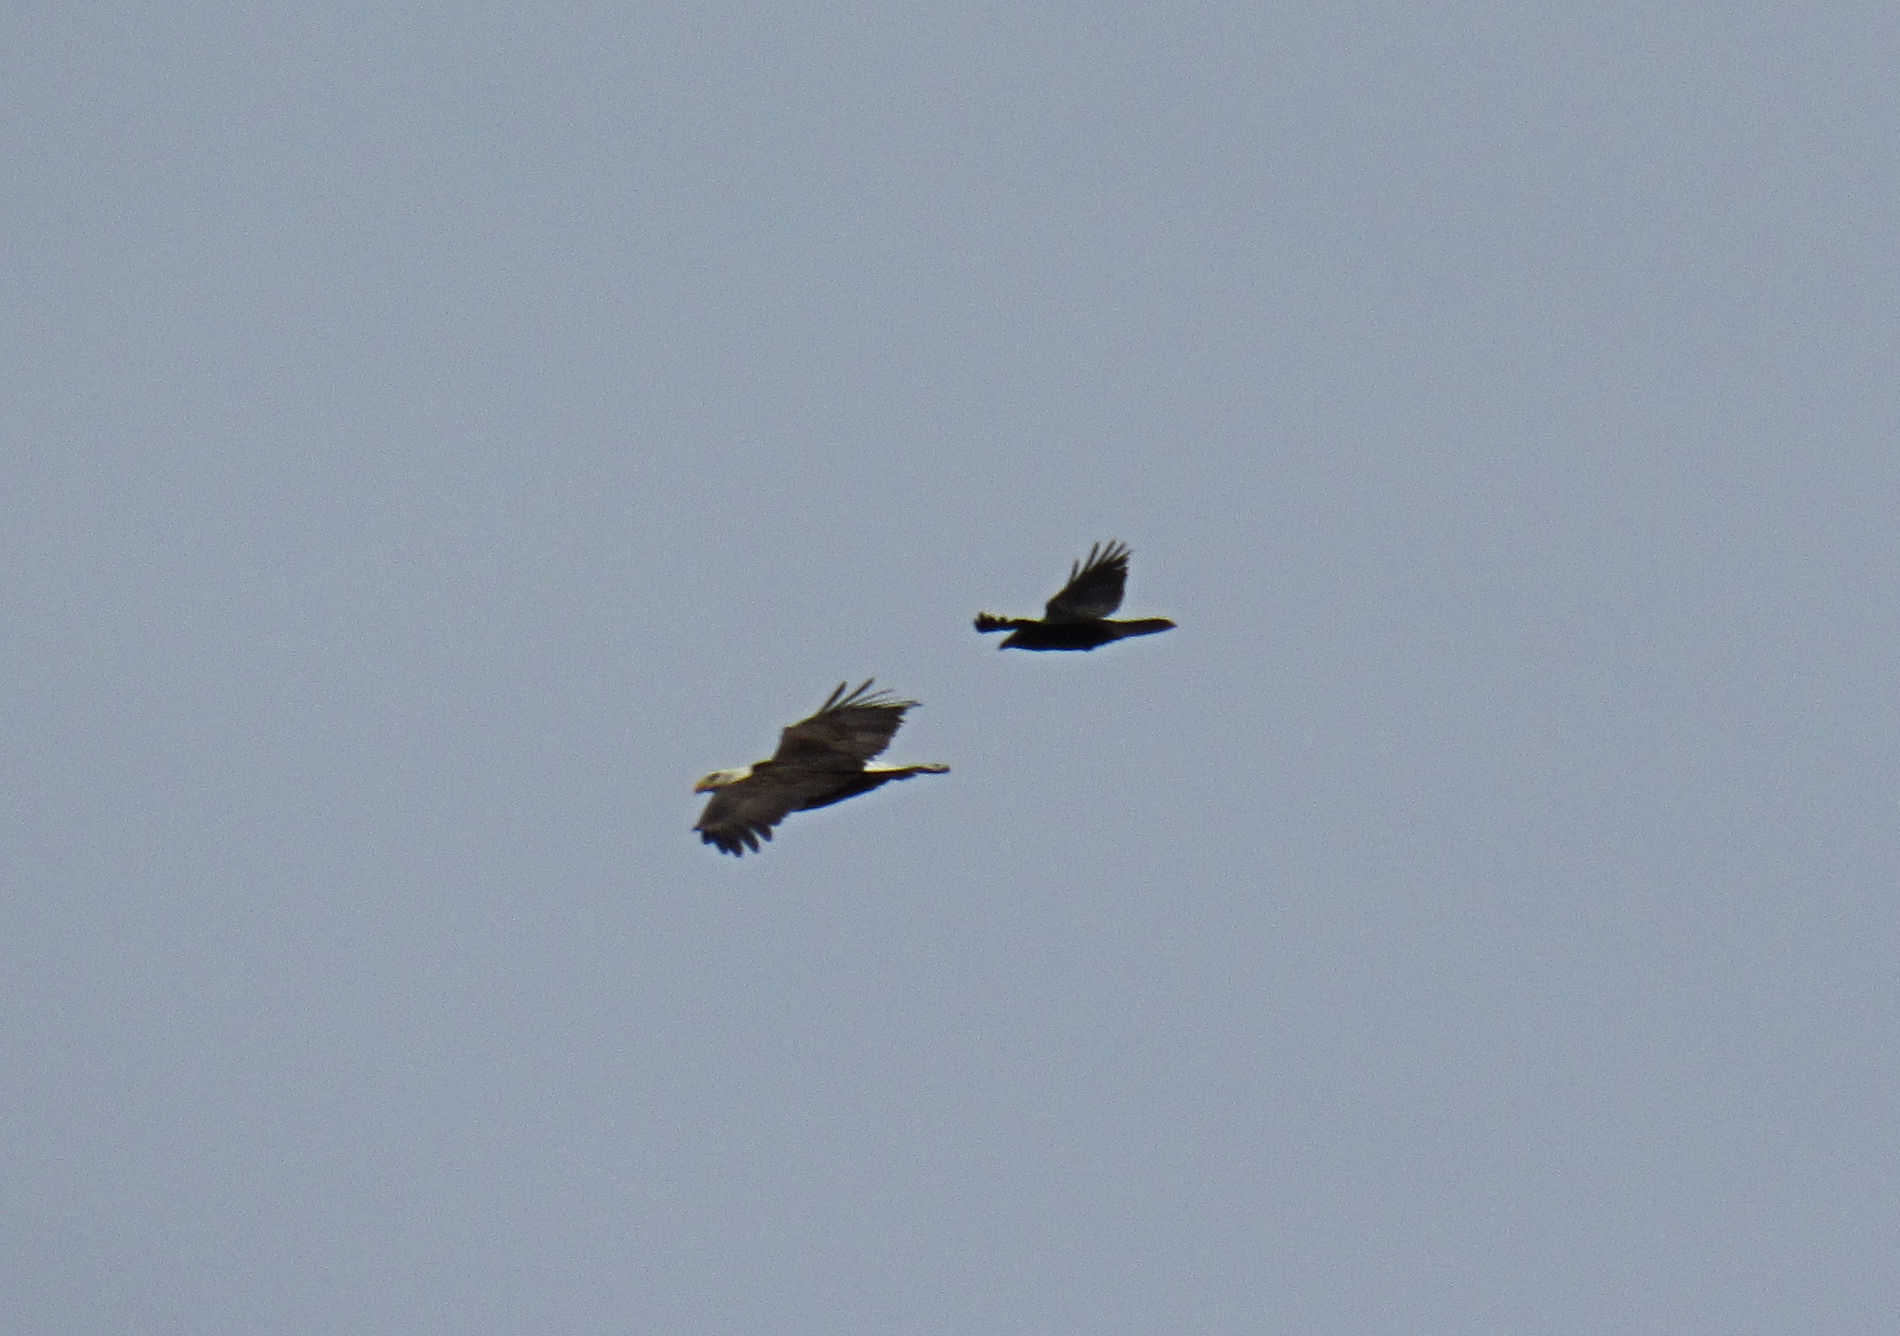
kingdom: Animalia
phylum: Chordata
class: Aves
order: Passeriformes
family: Corvidae
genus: Corvus
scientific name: Corvus corax
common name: Common raven
